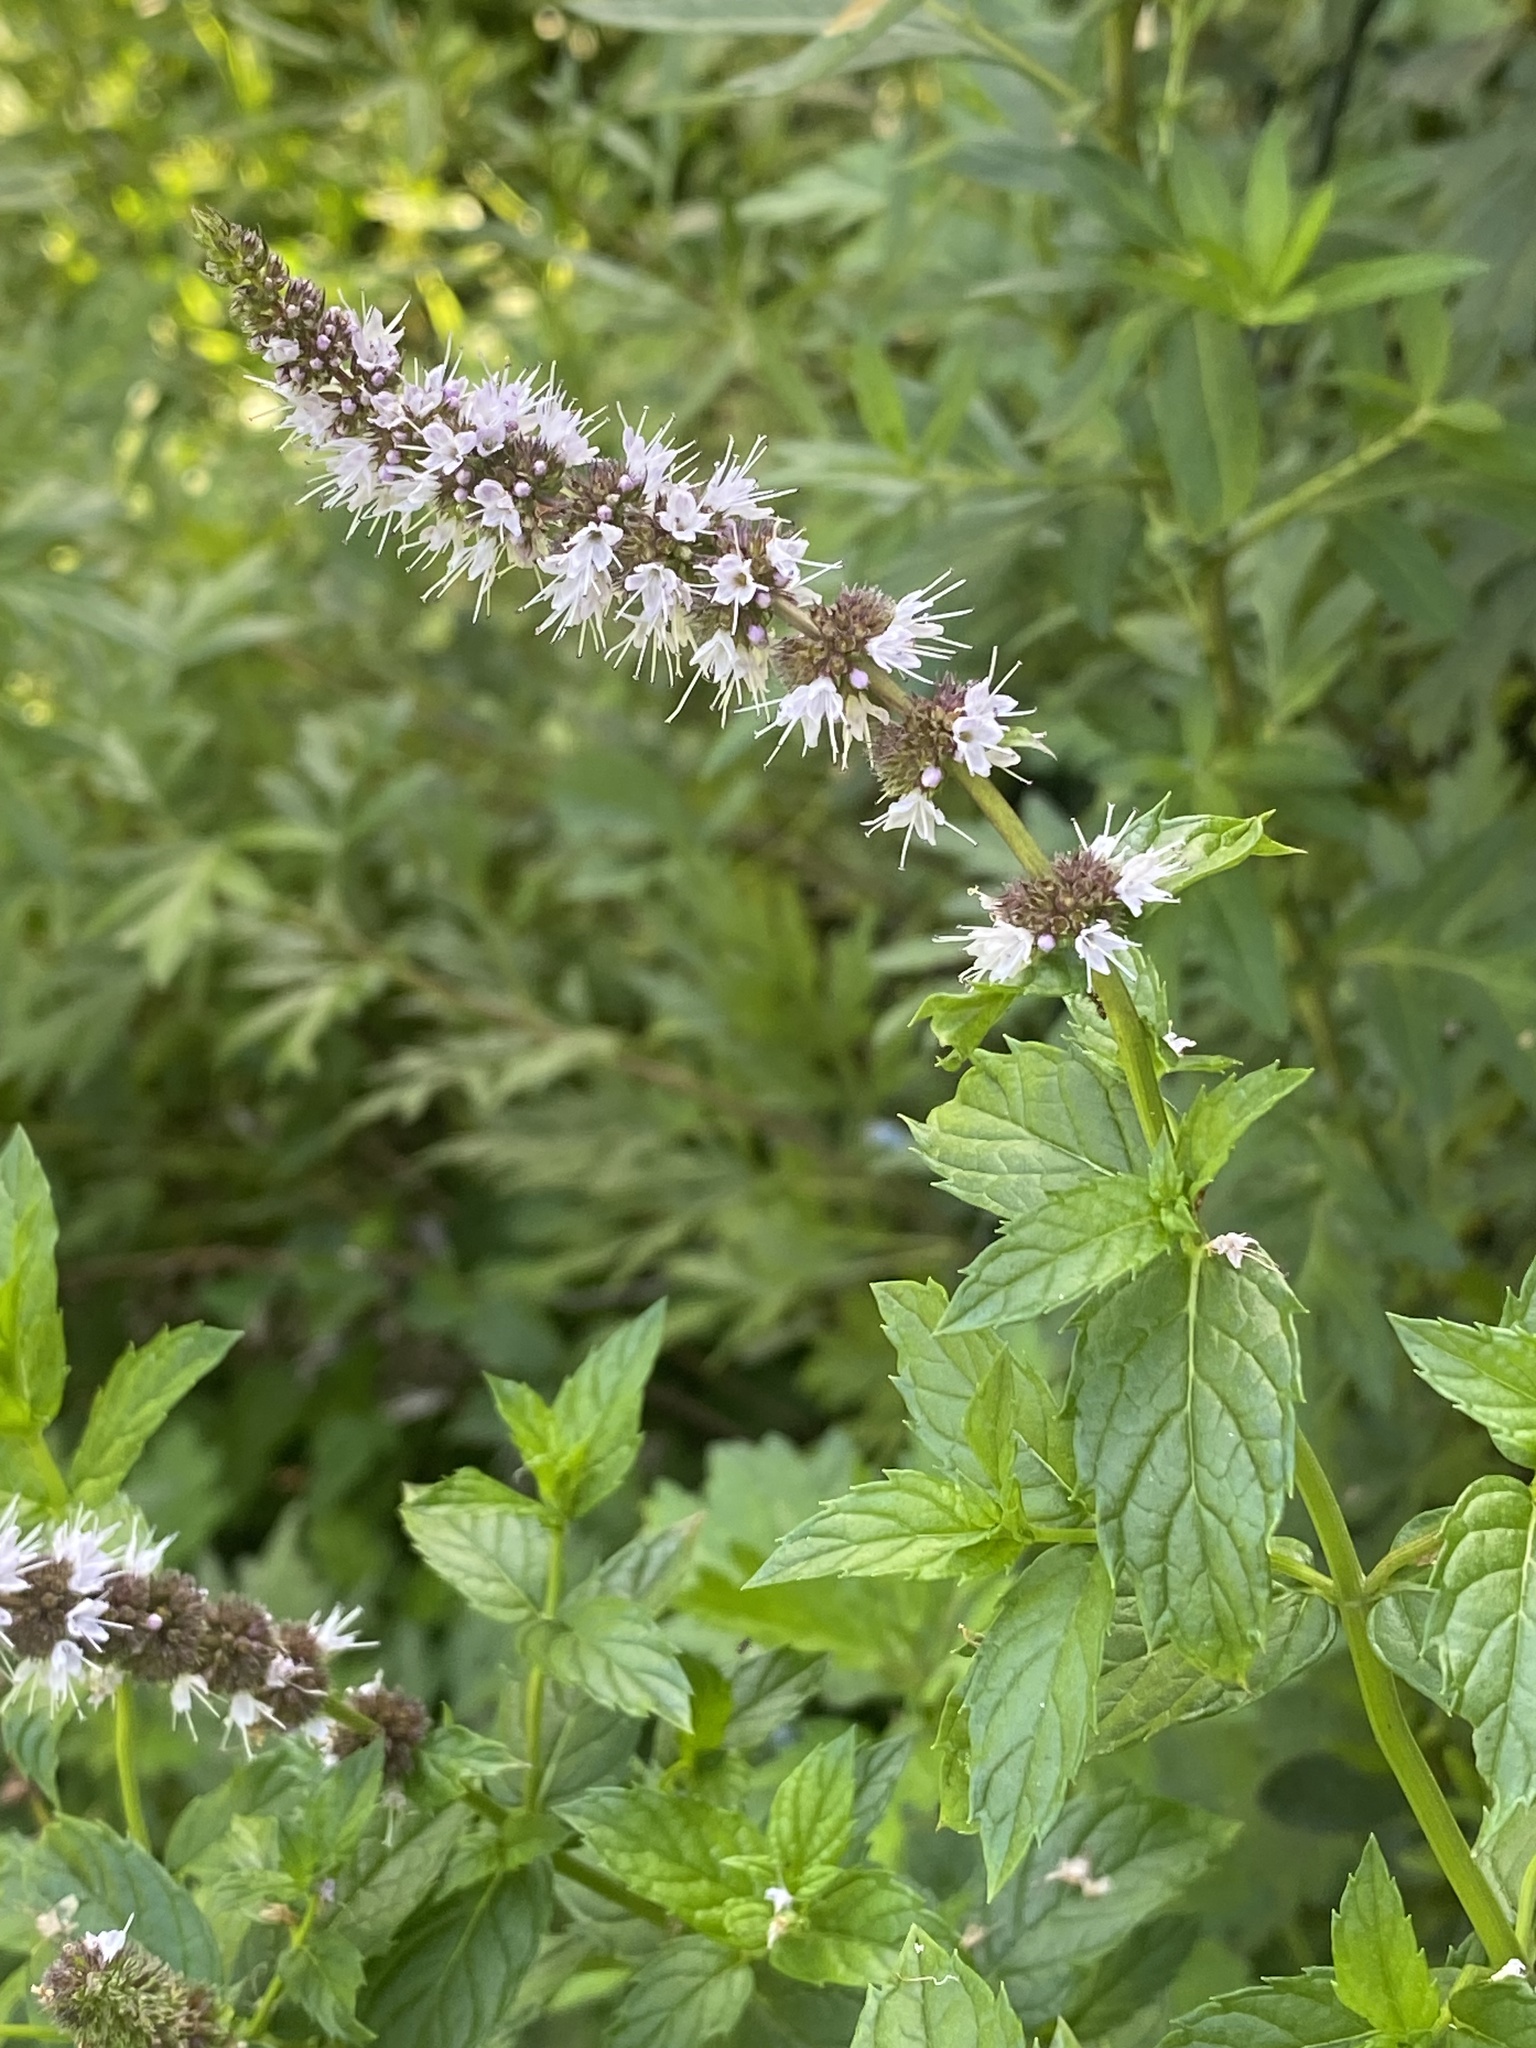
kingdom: Plantae
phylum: Tracheophyta
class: Magnoliopsida
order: Lamiales
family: Lamiaceae
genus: Mentha
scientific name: Mentha spicata
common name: Spearmint
